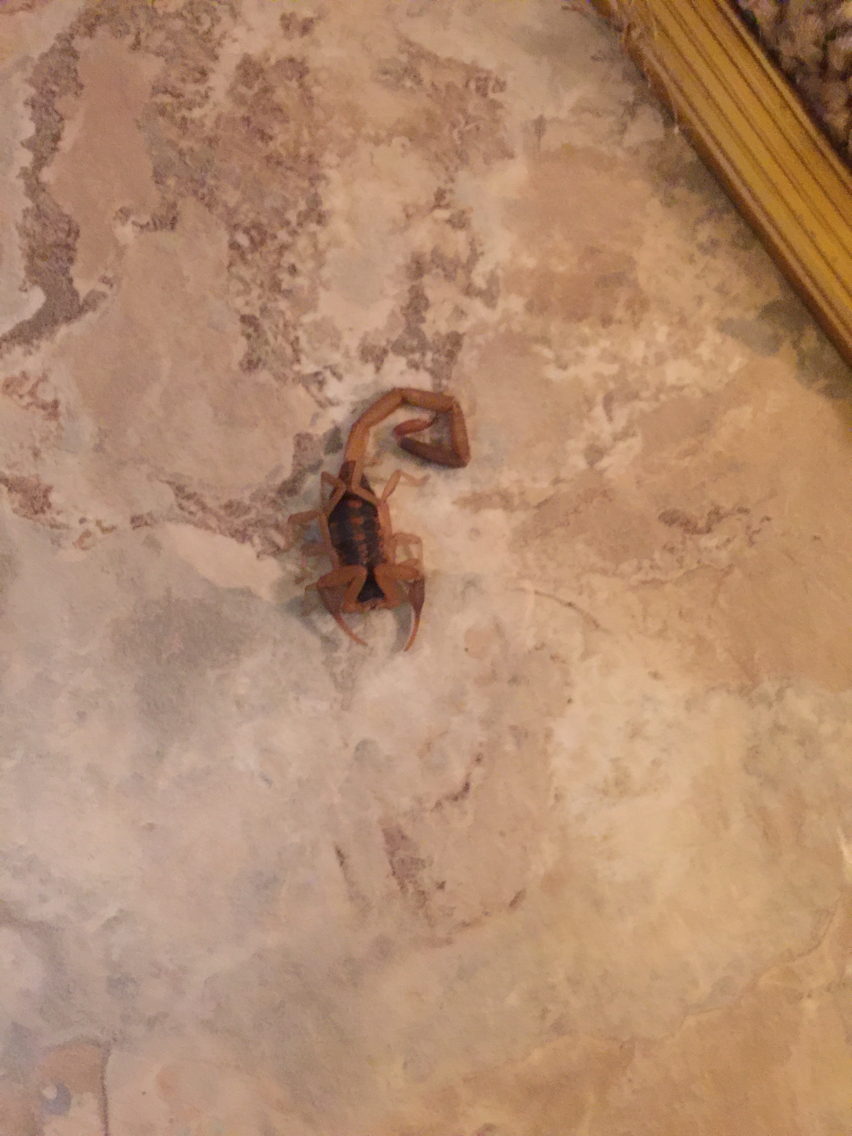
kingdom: Animalia
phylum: Arthropoda
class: Arachnida
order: Scorpiones
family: Buthidae
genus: Centruroides
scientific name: Centruroides vittatus
